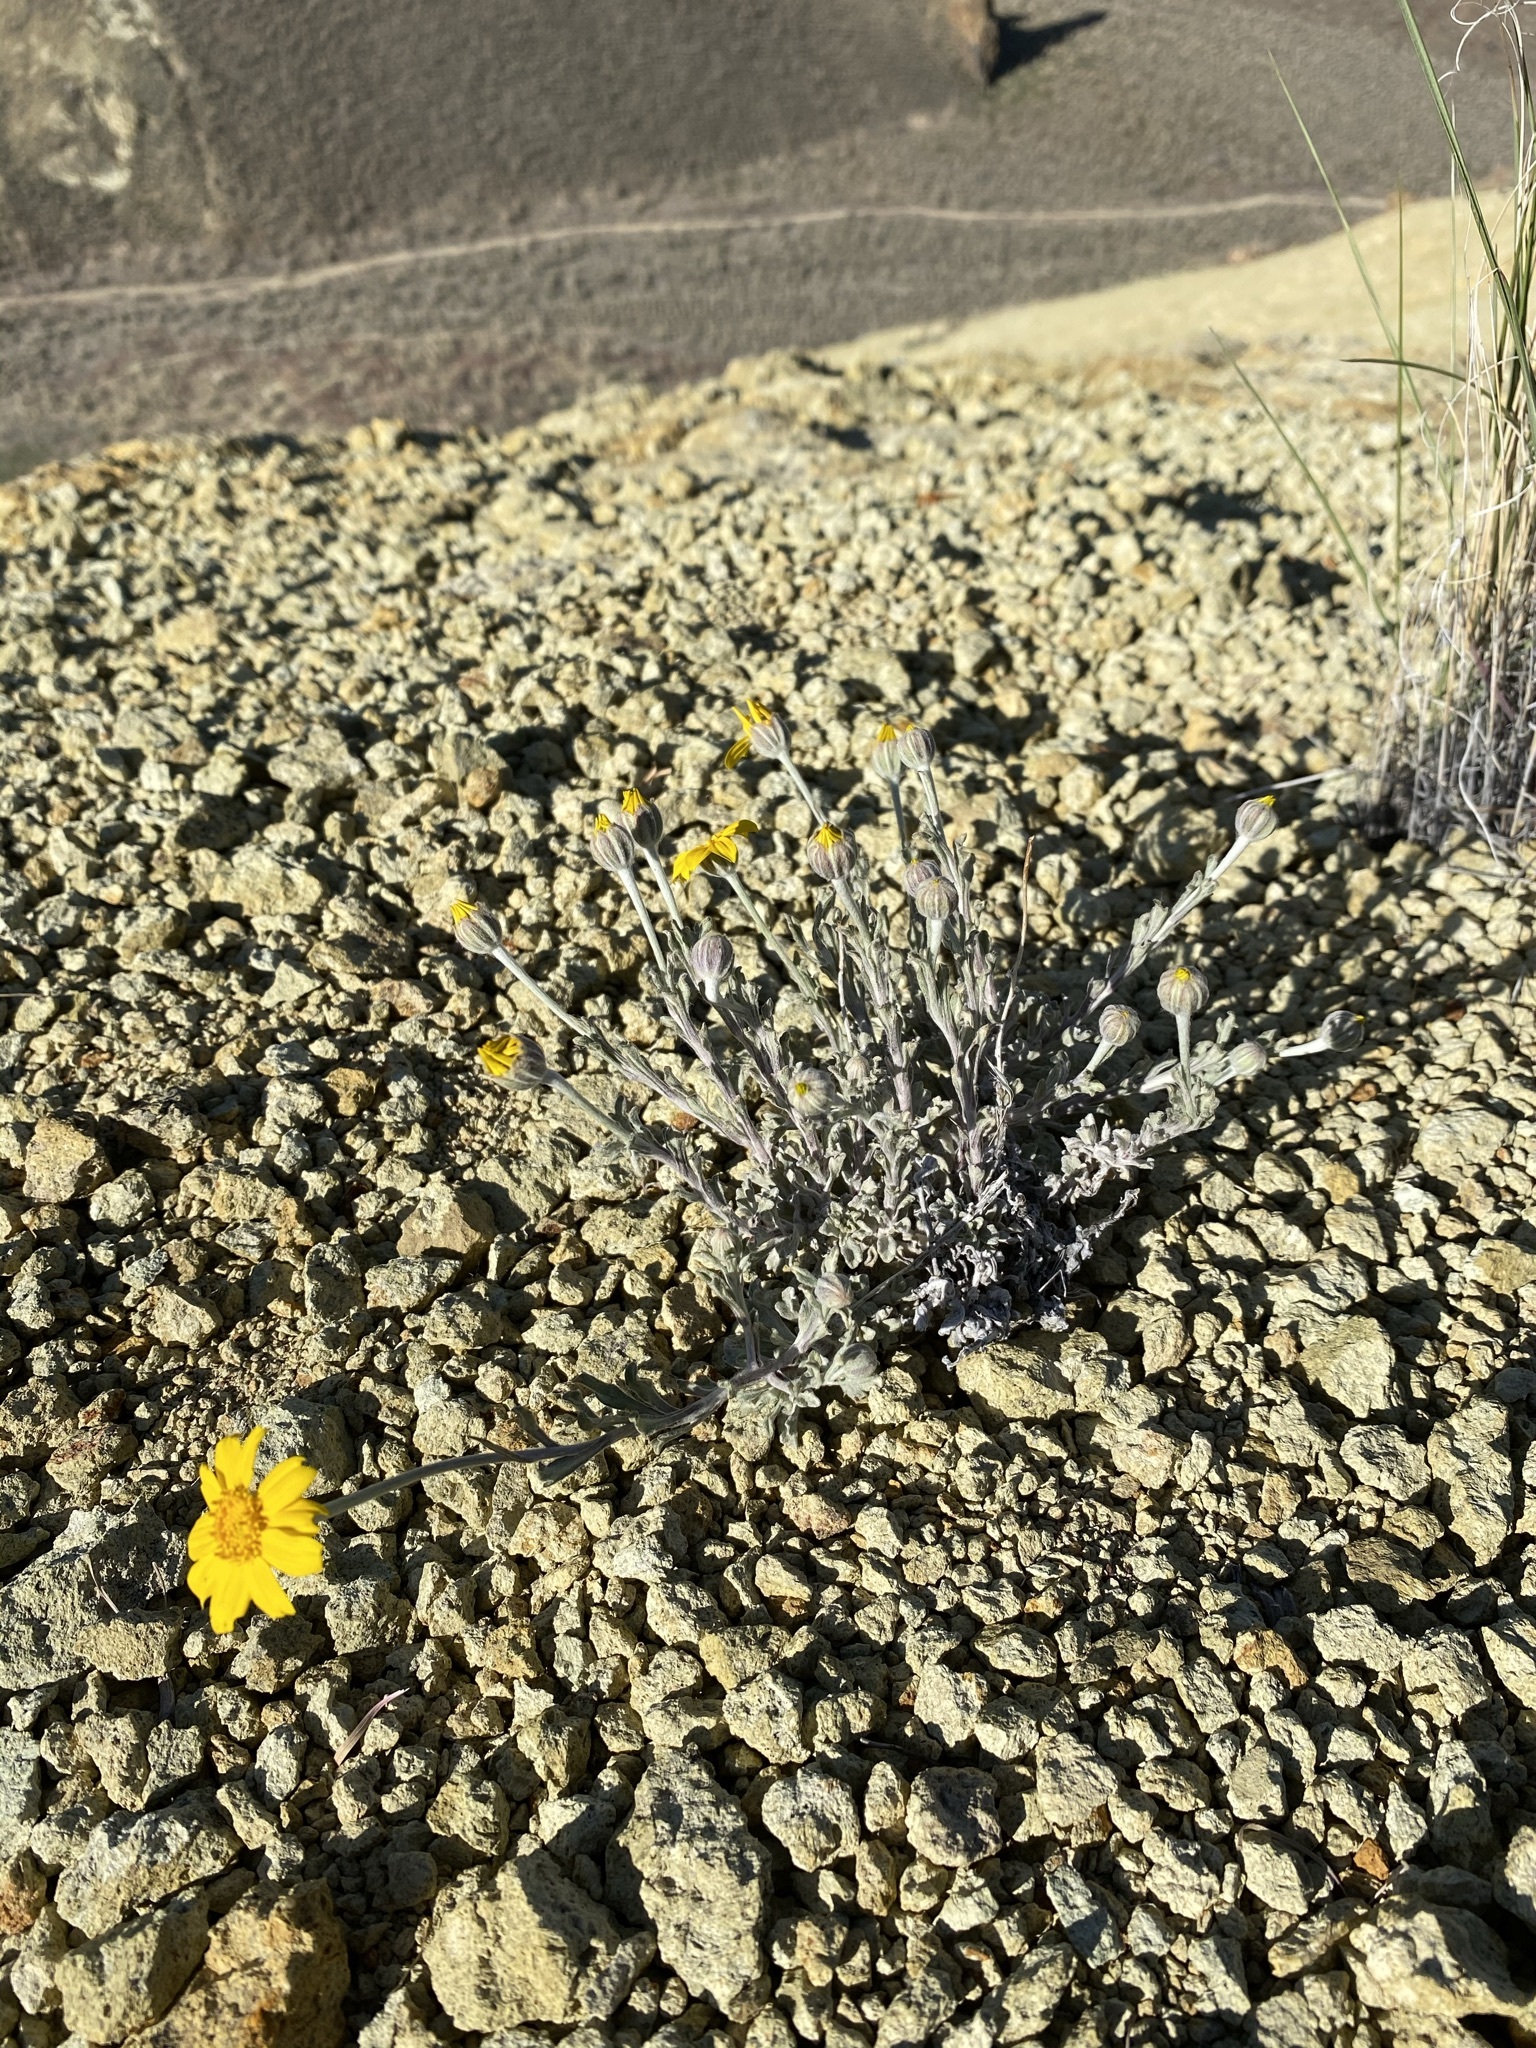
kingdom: Plantae
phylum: Tracheophyta
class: Magnoliopsida
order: Asterales
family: Asteraceae
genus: Eriophyllum
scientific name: Eriophyllum lanatum
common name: Common woolly-sunflower
